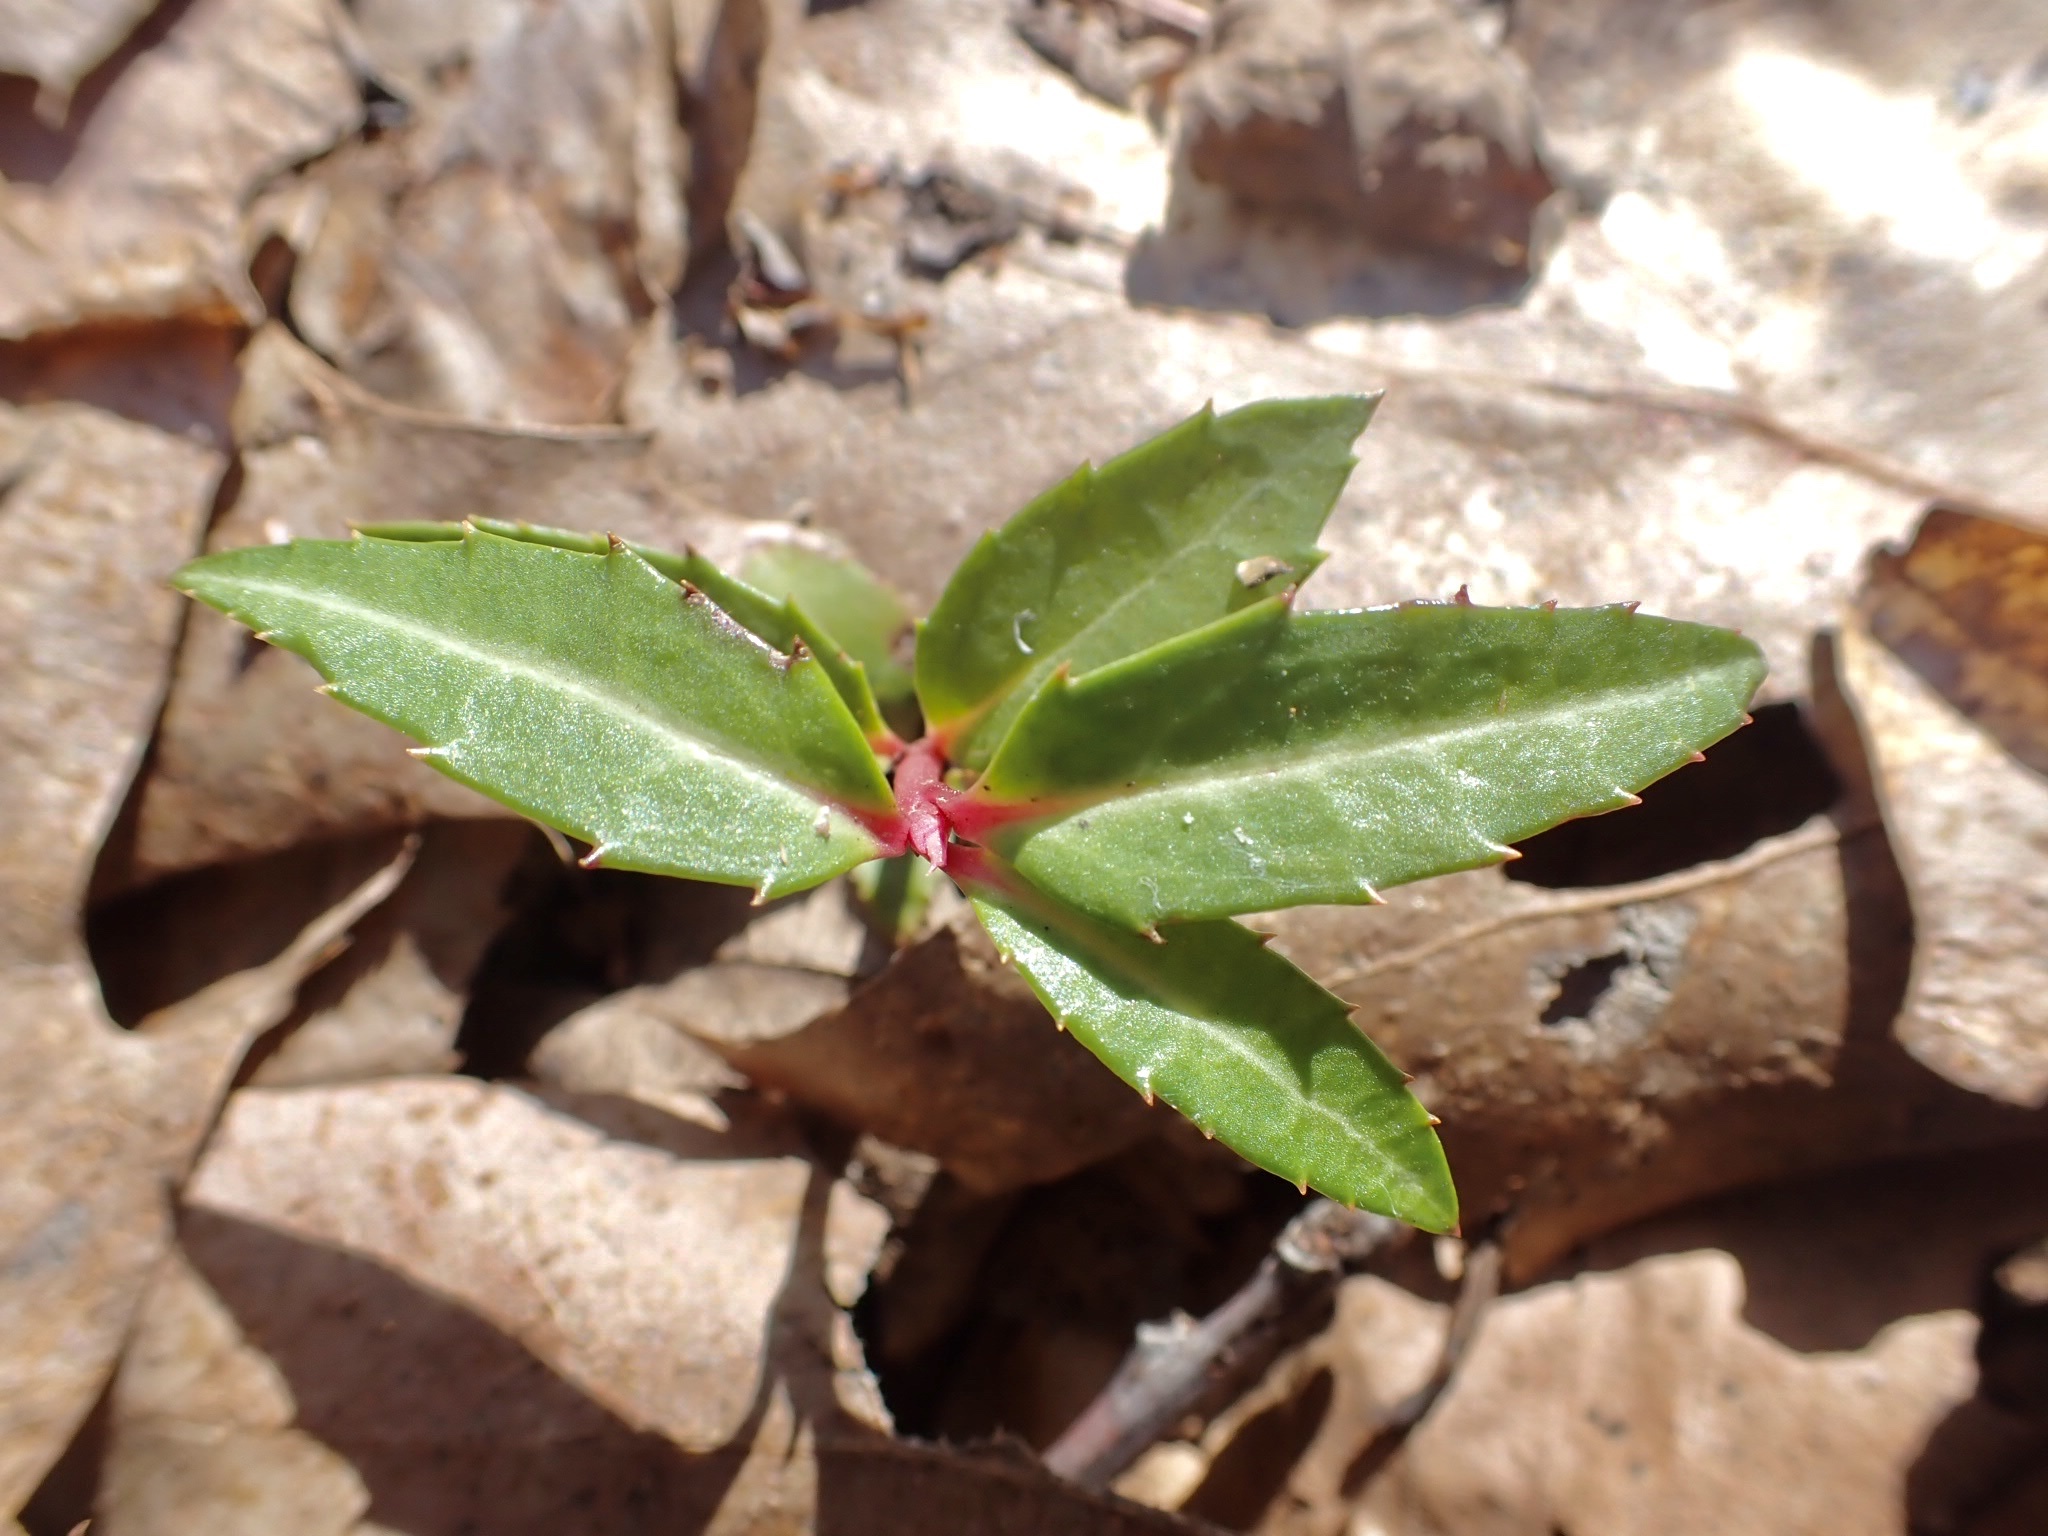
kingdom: Plantae
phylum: Tracheophyta
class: Magnoliopsida
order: Ericales
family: Ericaceae
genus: Chimaphila
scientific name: Chimaphila maculata
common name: Spotted pipsissewa
